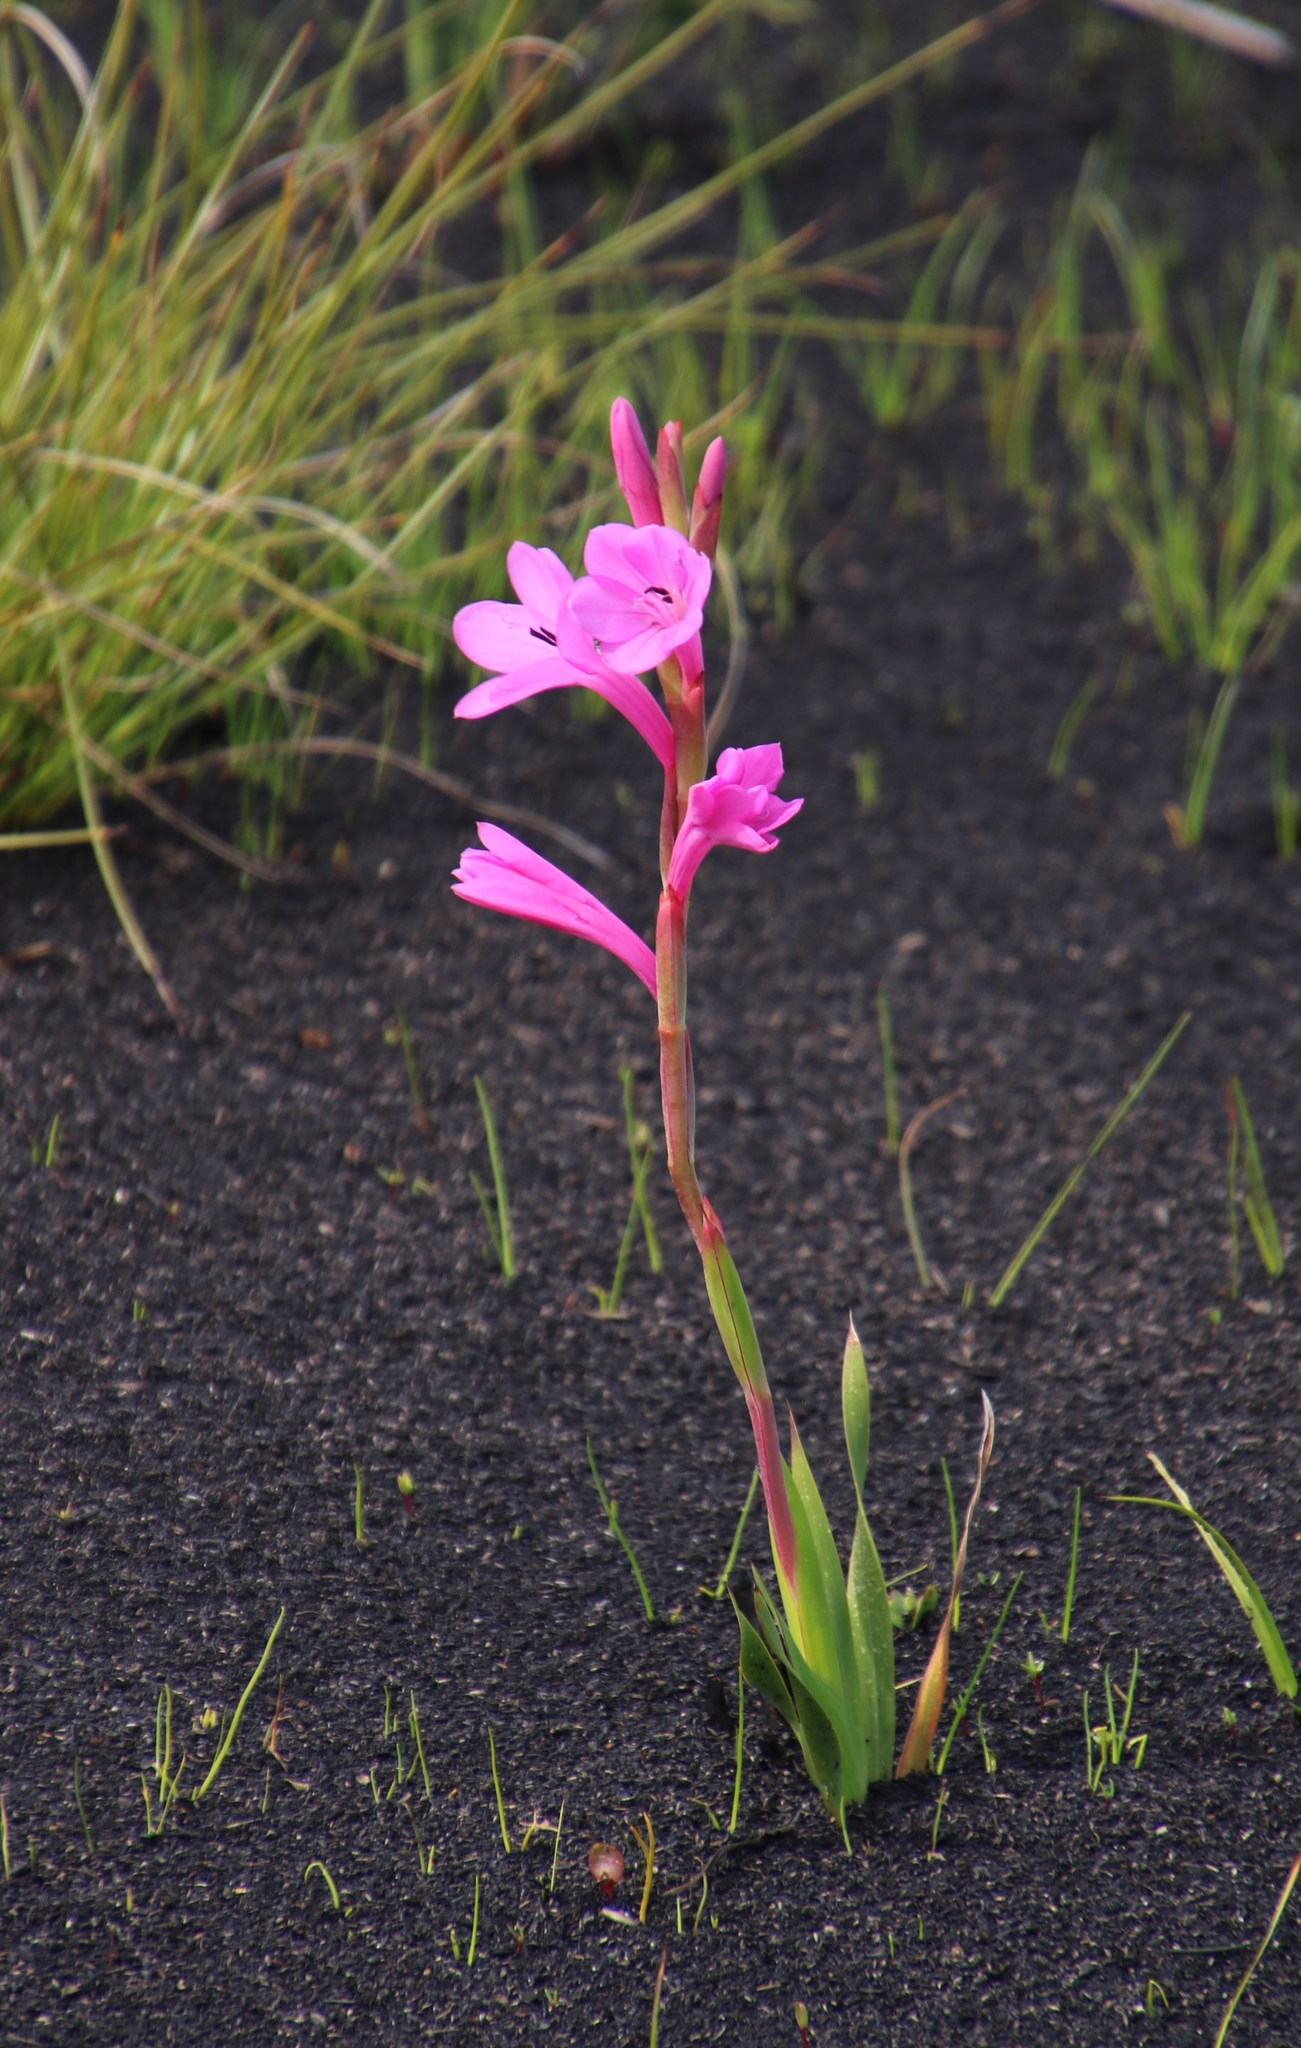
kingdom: Plantae
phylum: Tracheophyta
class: Liliopsida
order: Asparagales
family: Iridaceae
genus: Watsonia
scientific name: Watsonia coccinea
